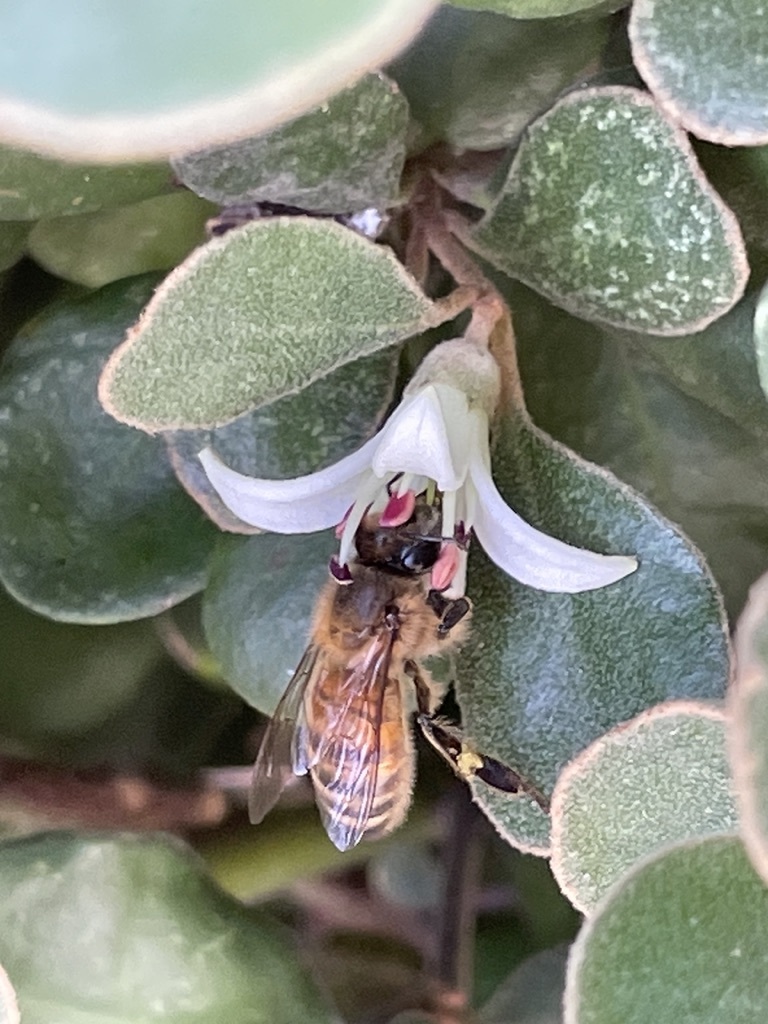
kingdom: Animalia
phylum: Arthropoda
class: Insecta
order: Hymenoptera
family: Apidae
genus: Apis
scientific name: Apis mellifera
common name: Honey bee
